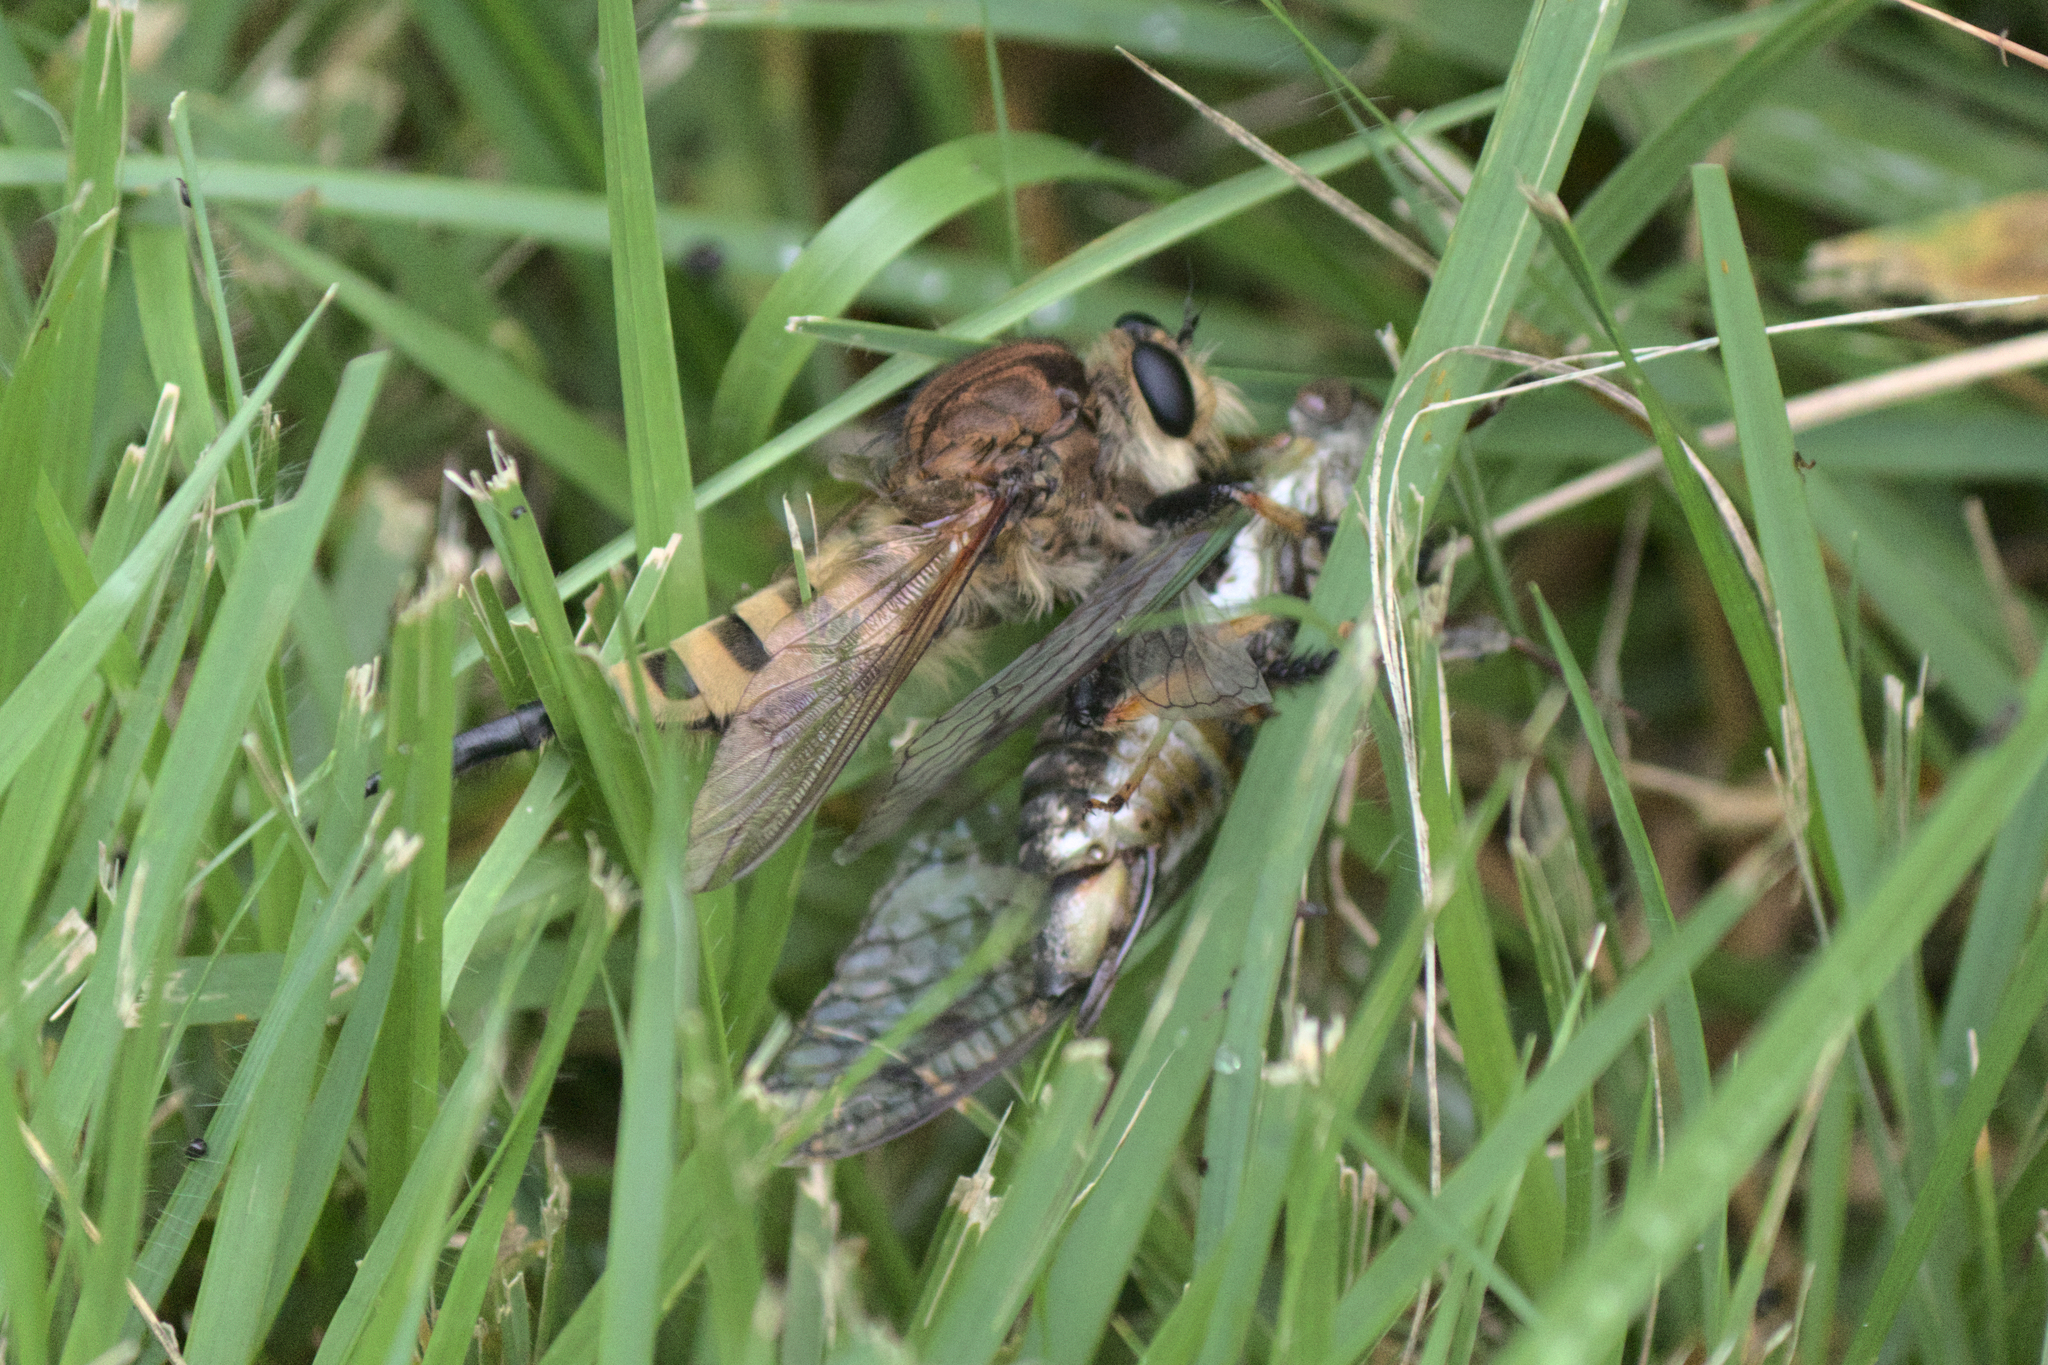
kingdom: Animalia
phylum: Arthropoda
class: Insecta
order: Diptera
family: Asilidae
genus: Promachus
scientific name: Promachus rufipes
